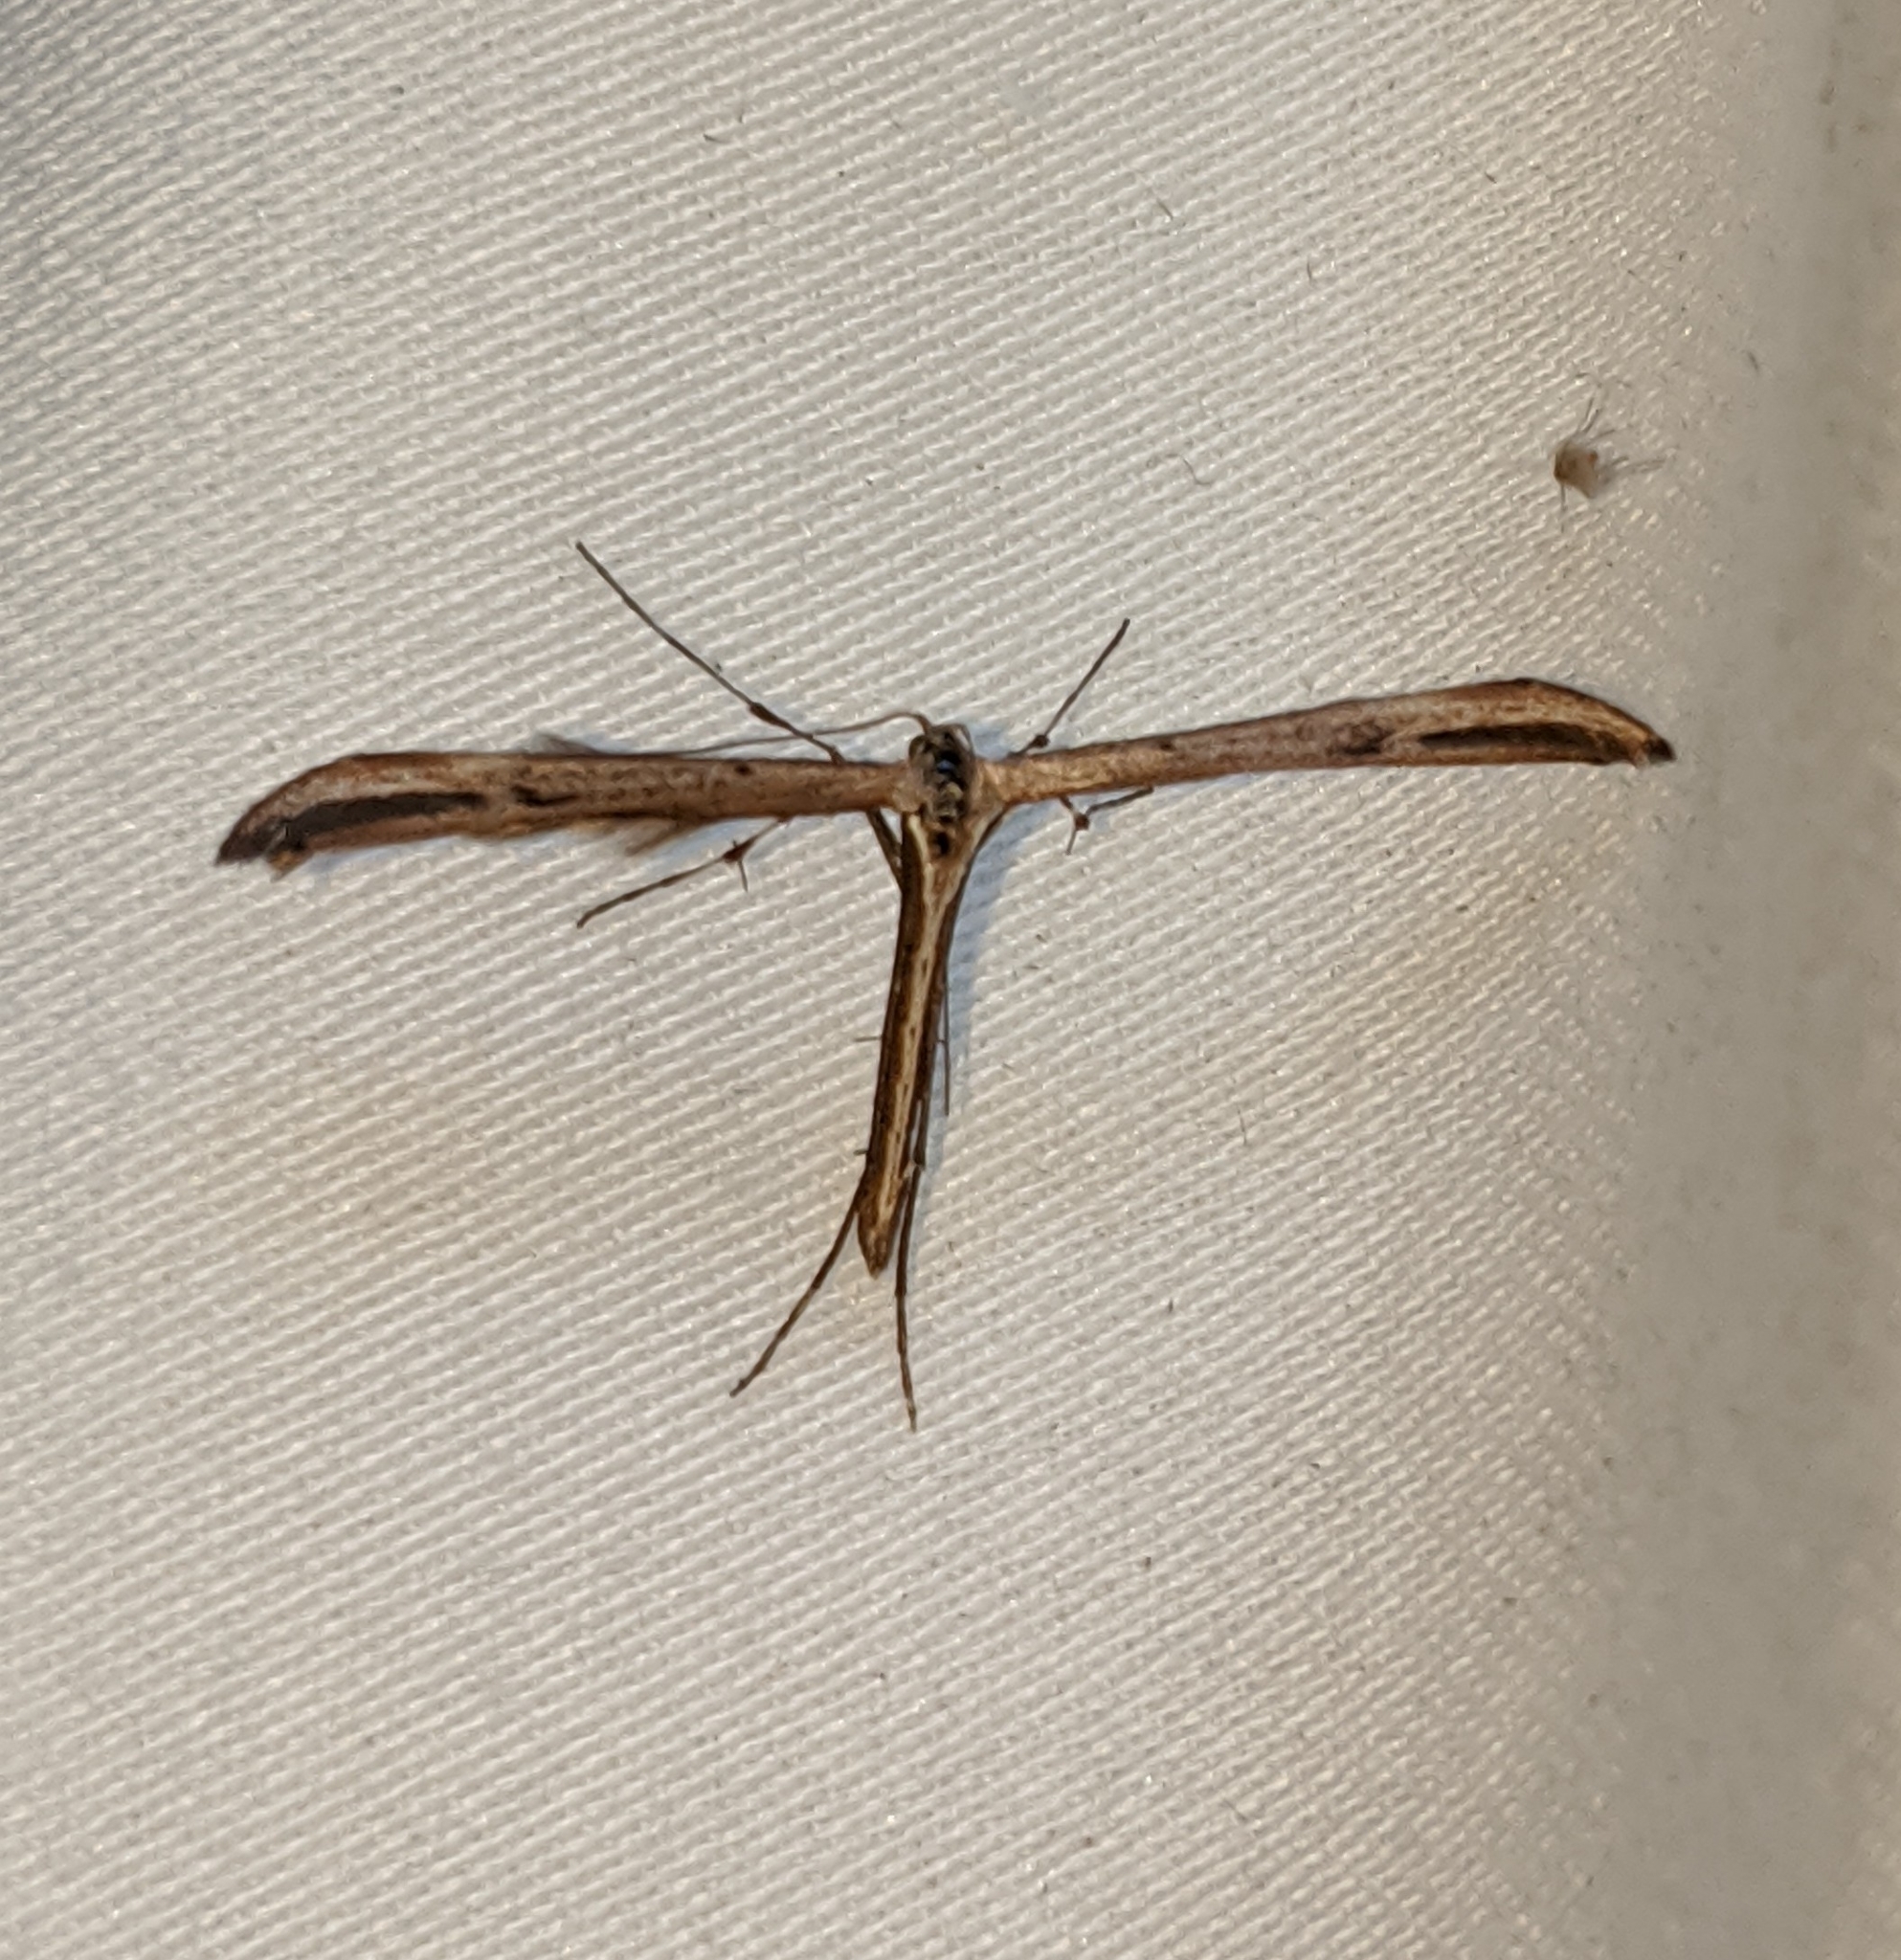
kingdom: Animalia
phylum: Arthropoda
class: Insecta
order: Lepidoptera
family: Pterophoridae
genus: Emmelina
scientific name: Emmelina monodactyla
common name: Common plume
